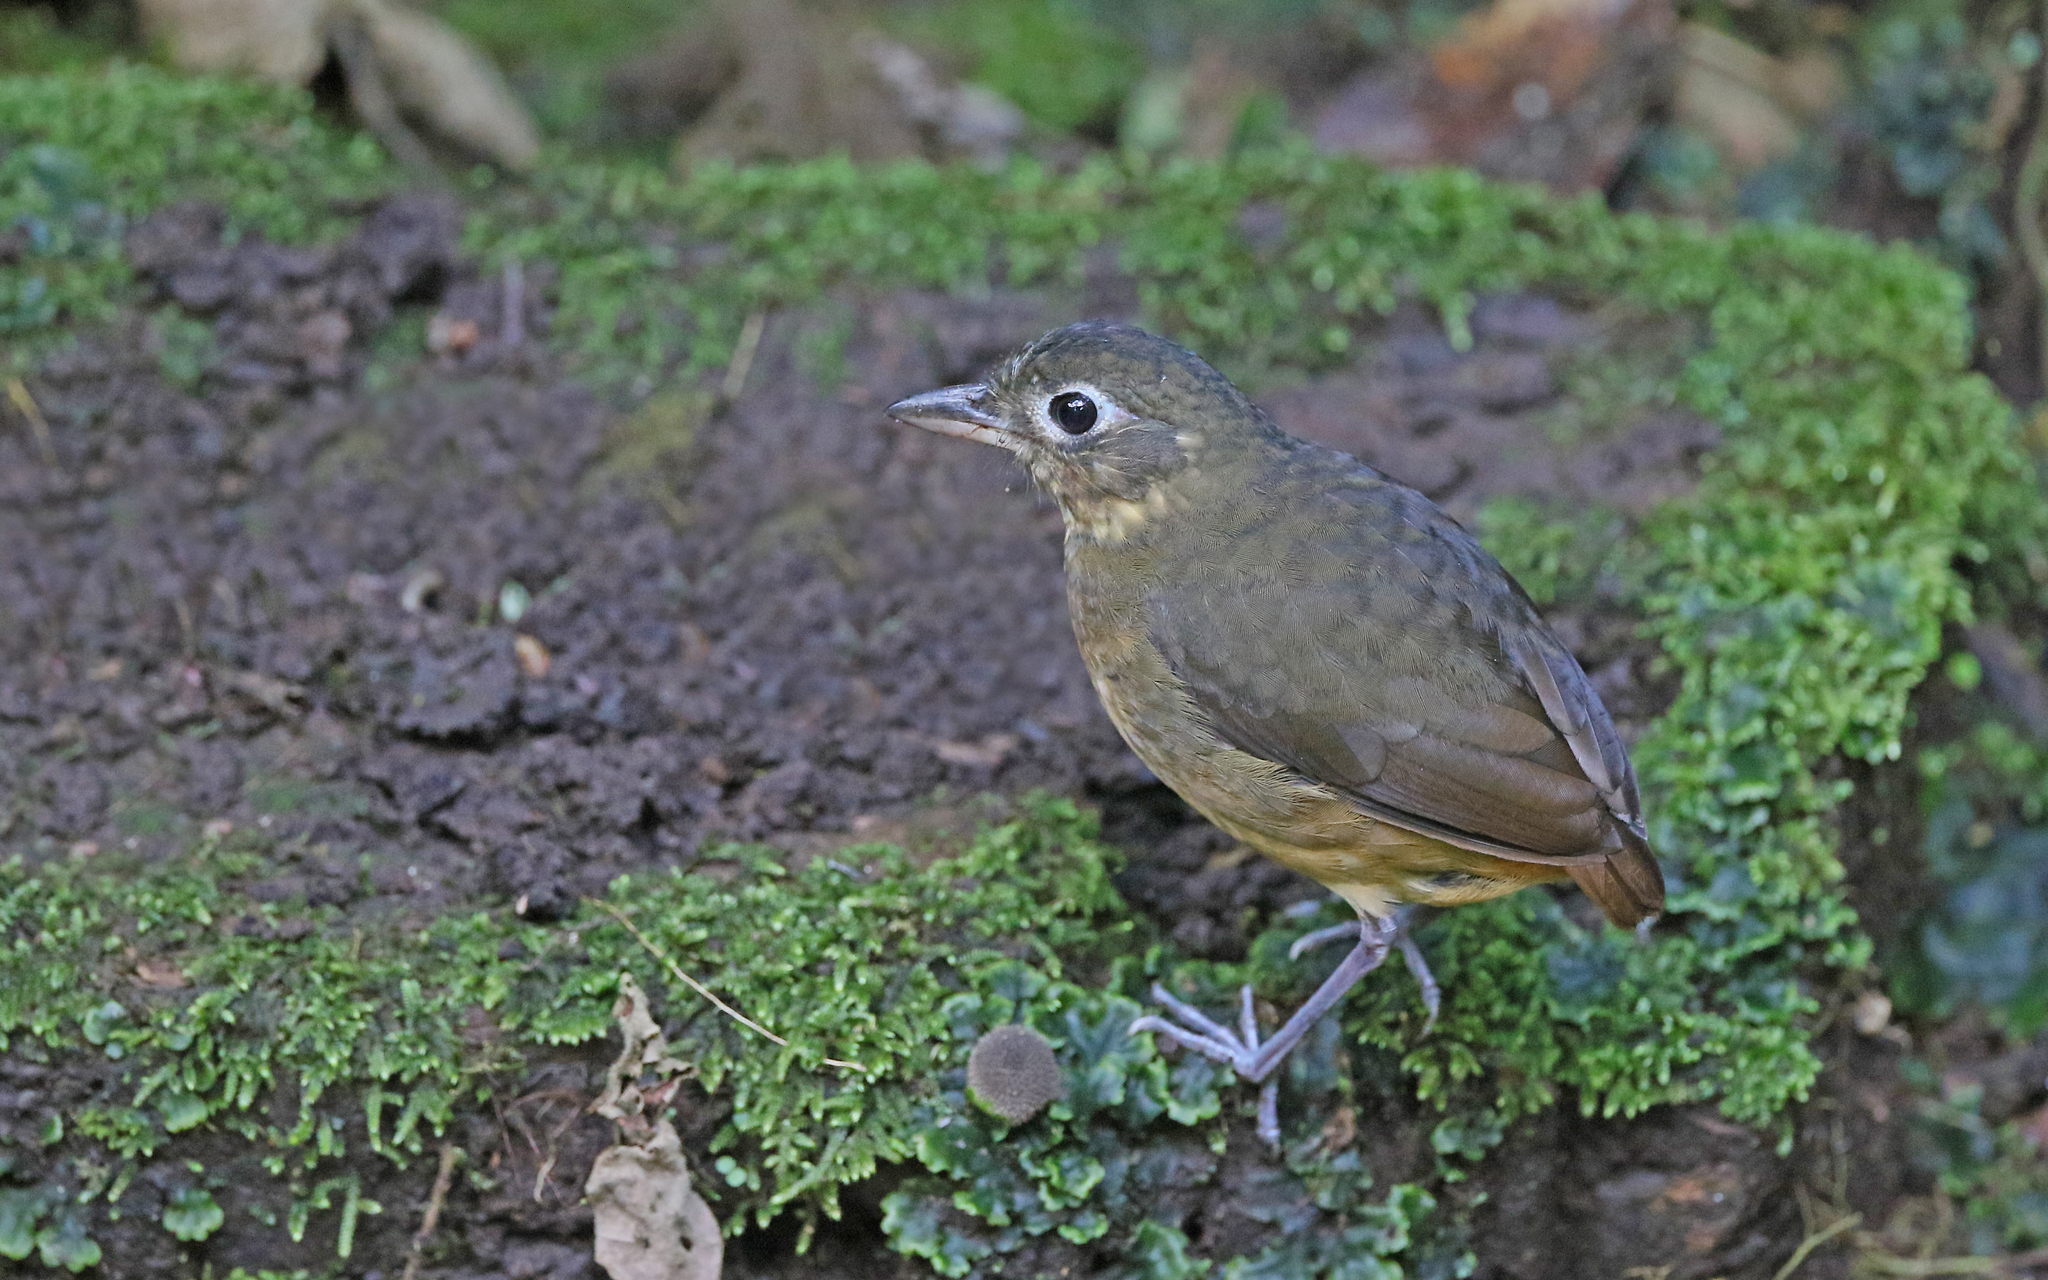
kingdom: Animalia
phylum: Chordata
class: Aves
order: Passeriformes
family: Grallariidae
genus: Grallaria
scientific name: Grallaria haplonota
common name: Plain-backed antpitta
